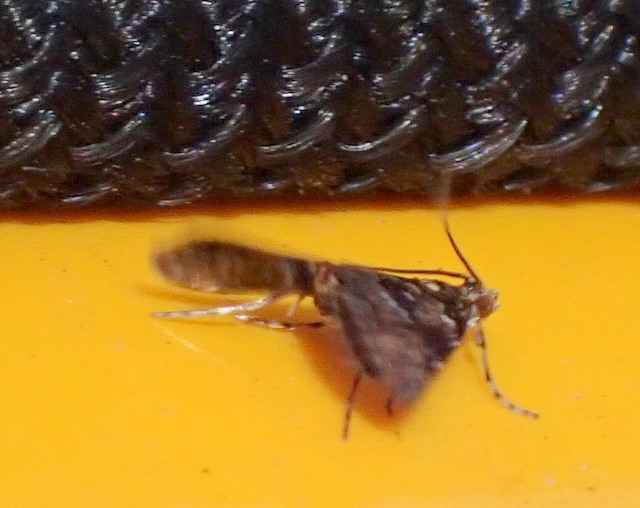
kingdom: Animalia
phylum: Arthropoda
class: Insecta
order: Lepidoptera
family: Crambidae
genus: Elophila
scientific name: Elophila obliteralis
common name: Waterlily leafcutter moth
